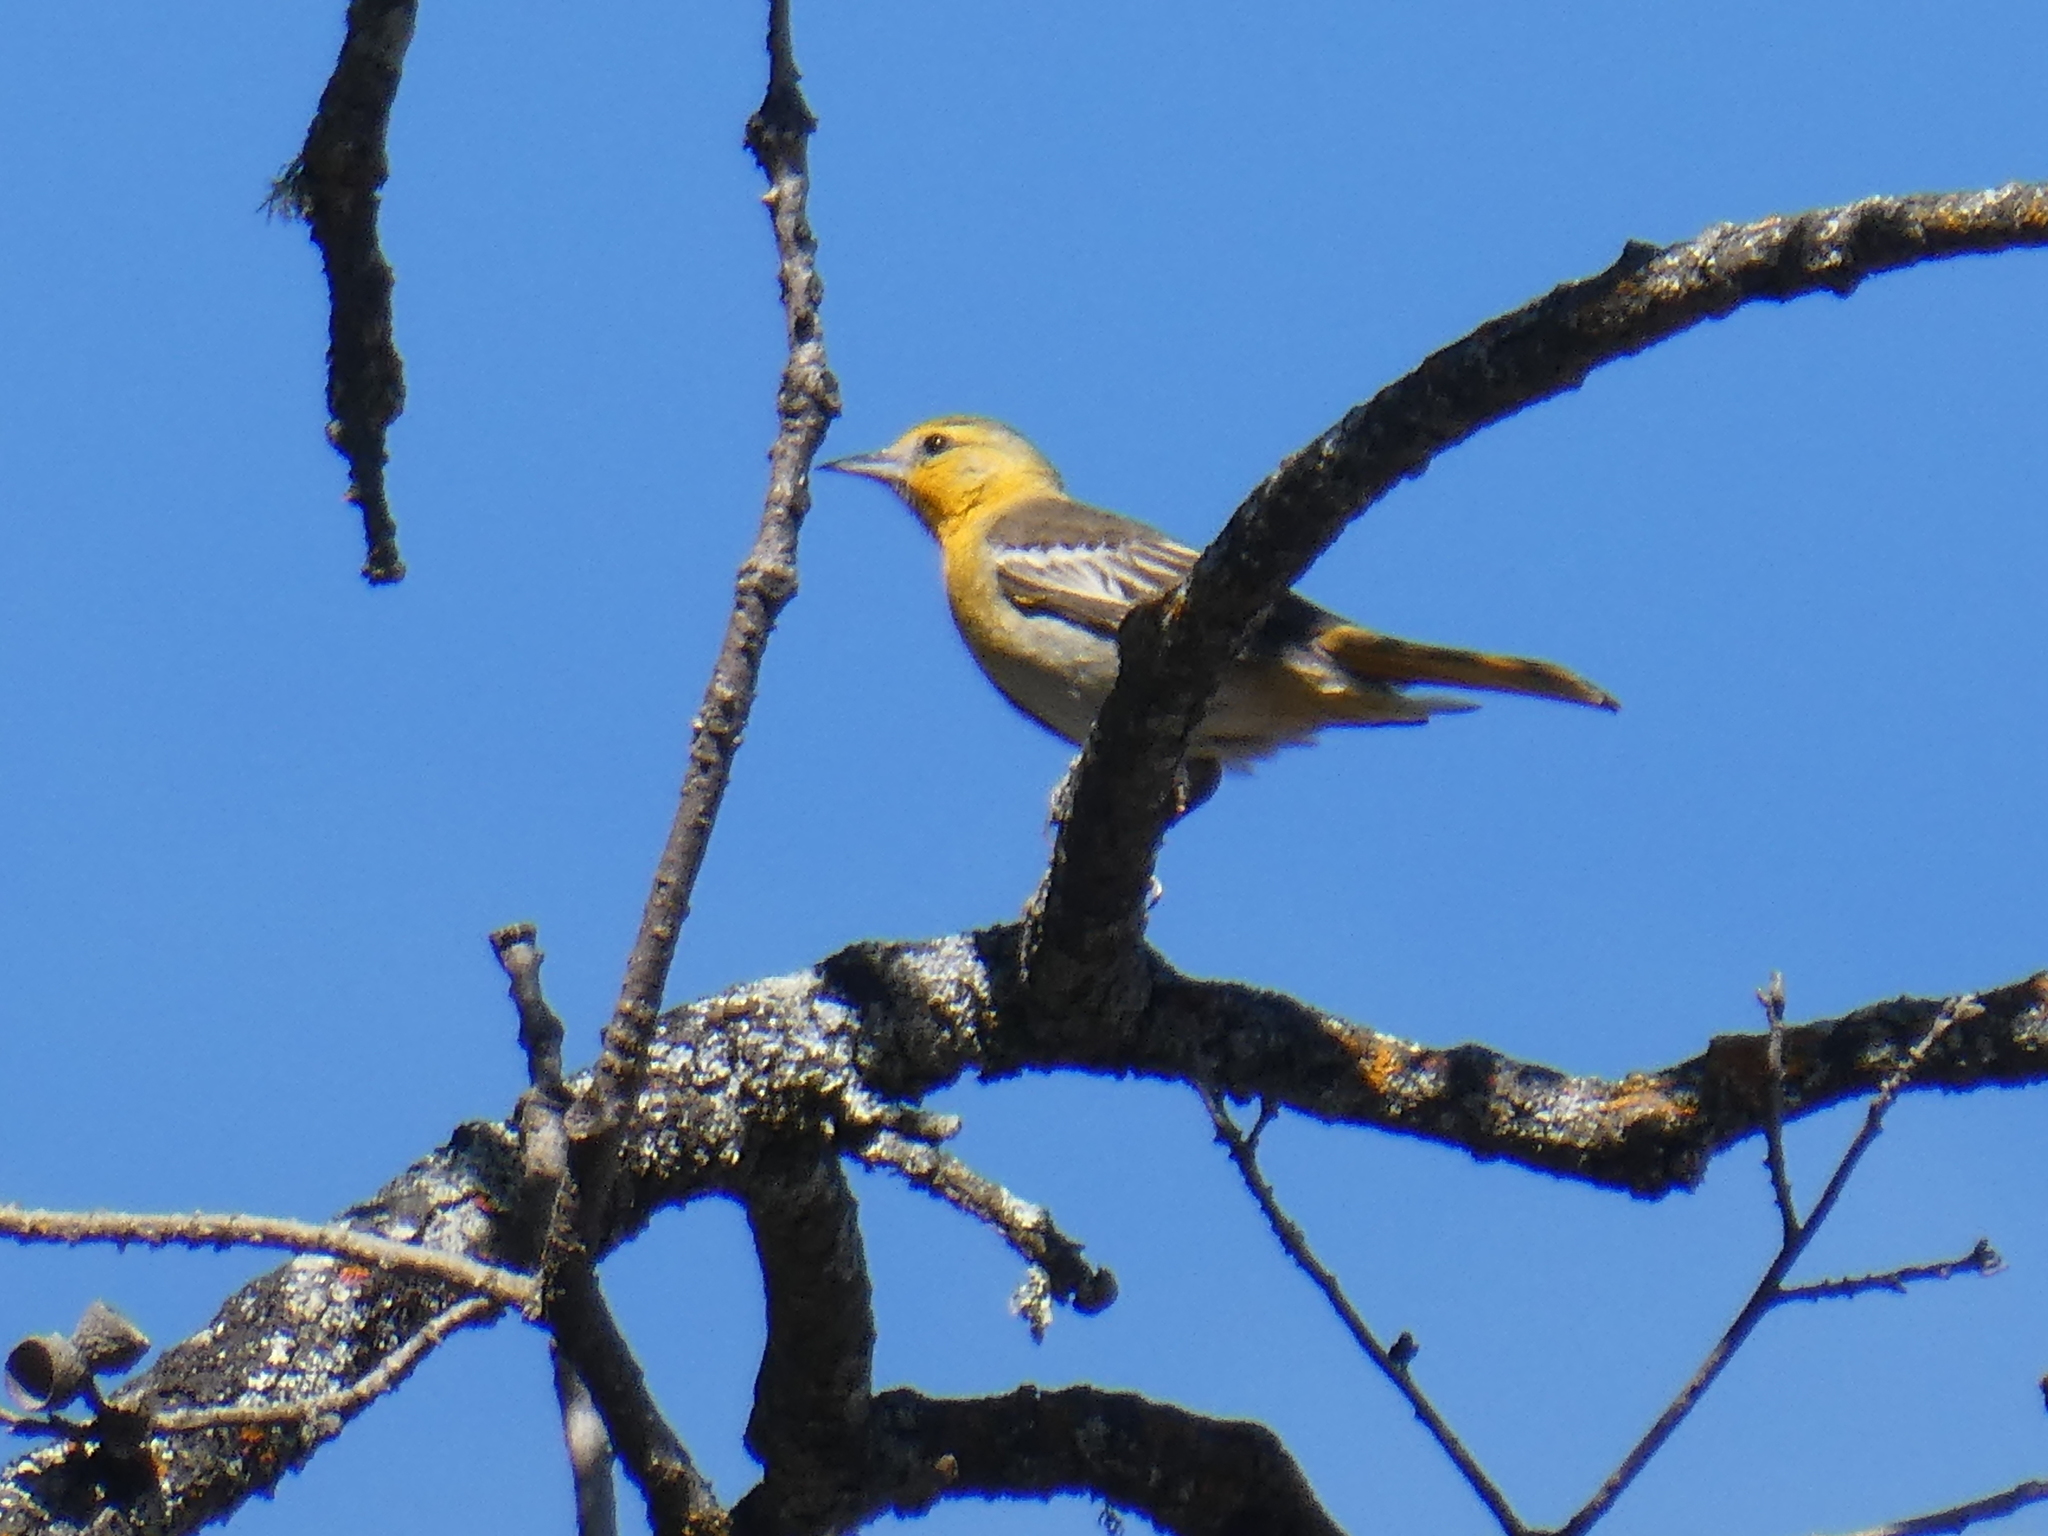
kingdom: Animalia
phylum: Chordata
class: Aves
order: Passeriformes
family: Icteridae
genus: Icterus
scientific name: Icterus bullockii
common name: Bullock's oriole
